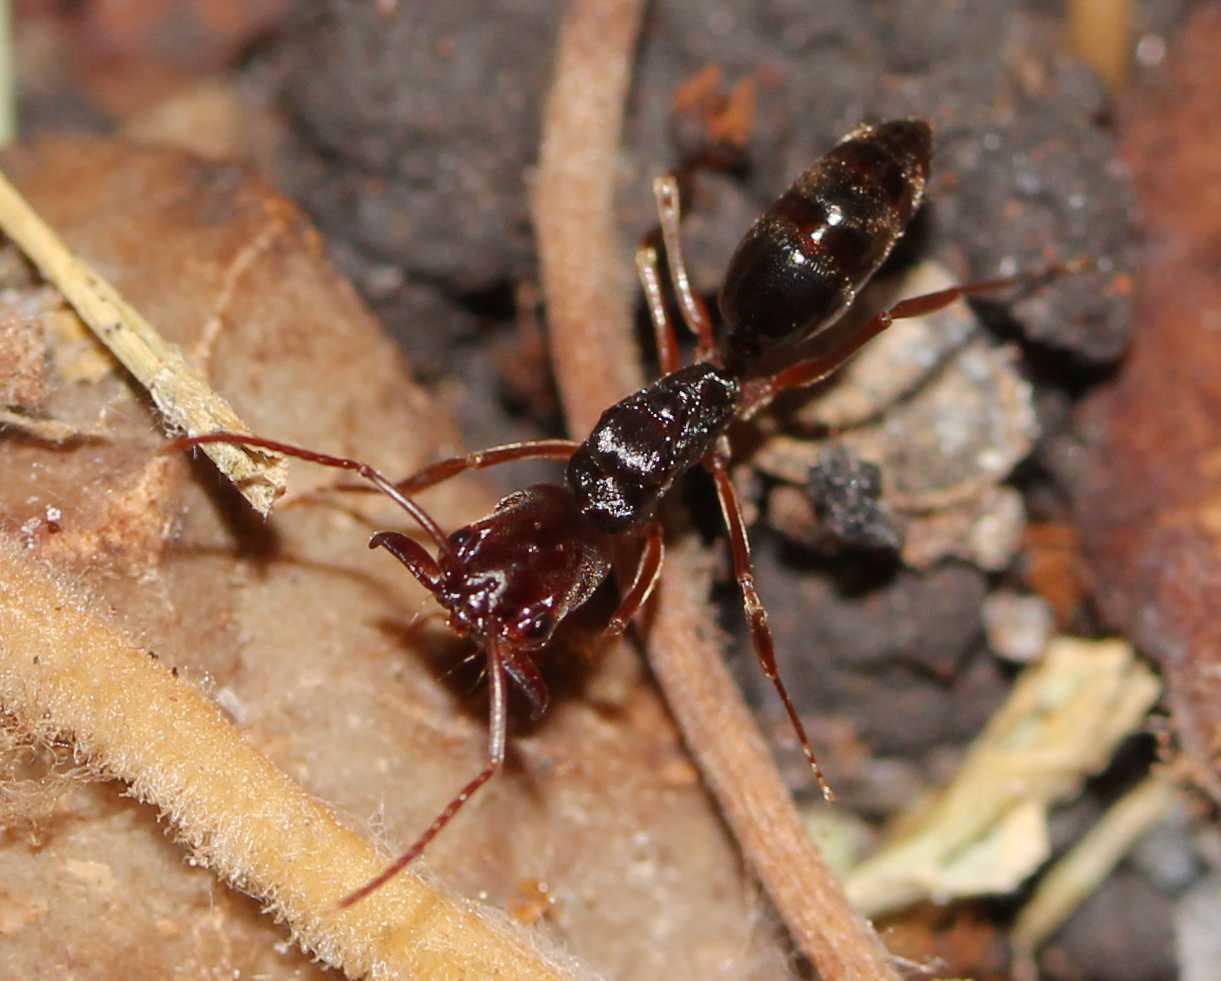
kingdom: Animalia
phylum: Arthropoda
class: Insecta
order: Hymenoptera
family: Formicidae
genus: Odontomachus
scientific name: Odontomachus
